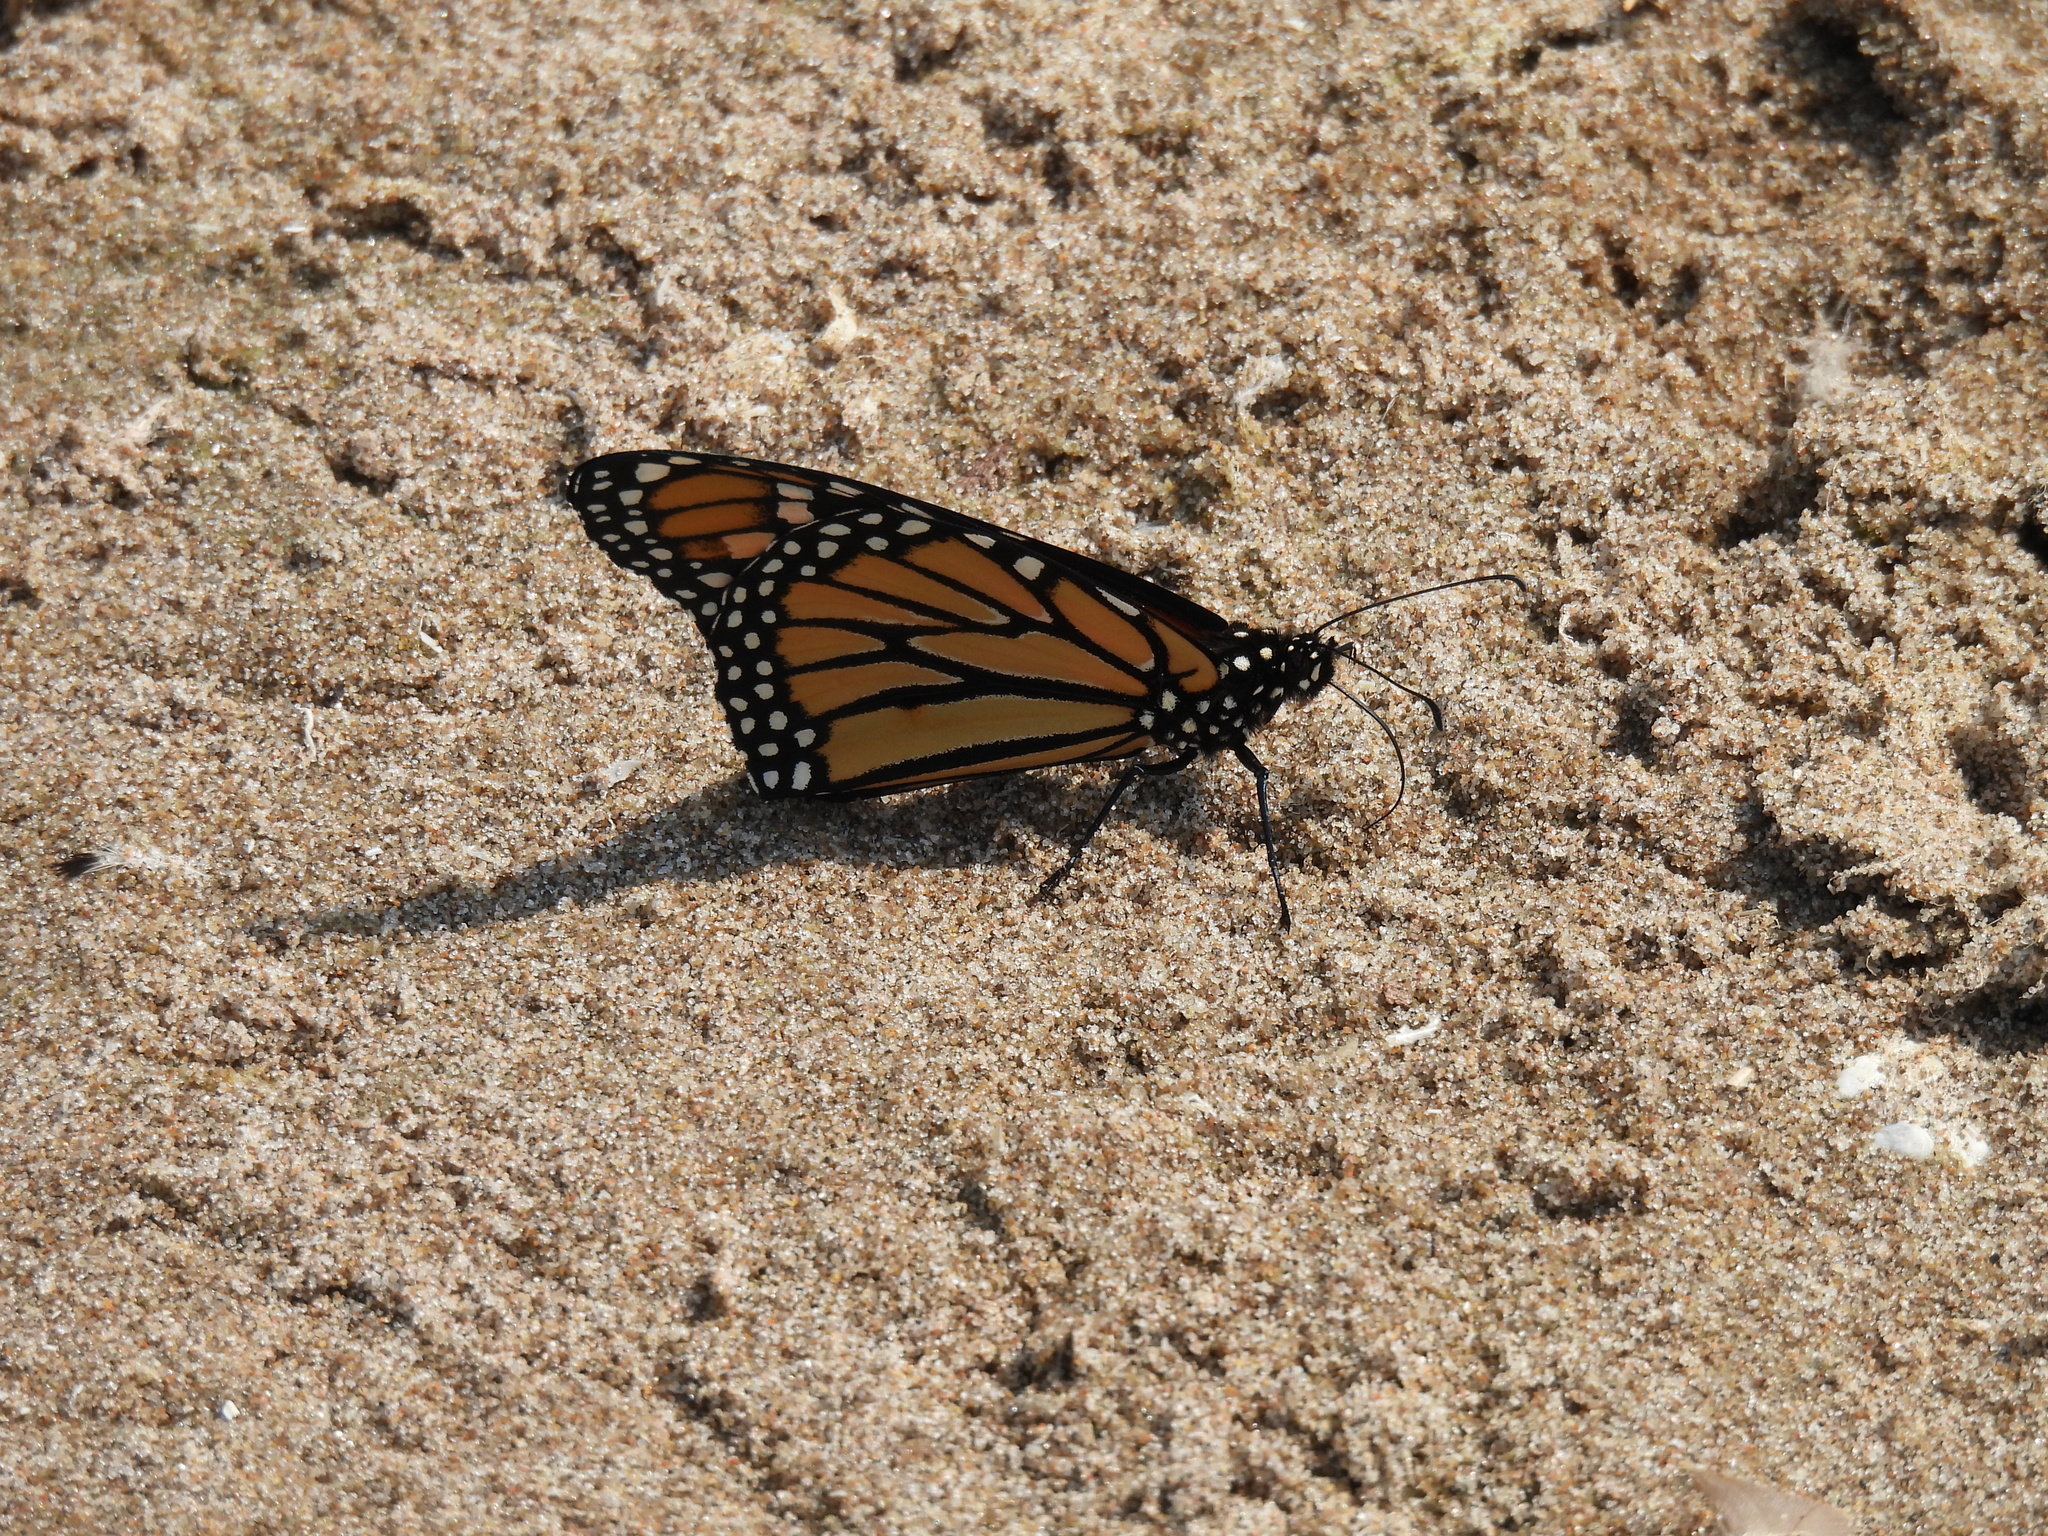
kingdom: Animalia
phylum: Arthropoda
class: Insecta
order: Lepidoptera
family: Nymphalidae
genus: Danaus
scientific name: Danaus plexippus
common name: Monarch
